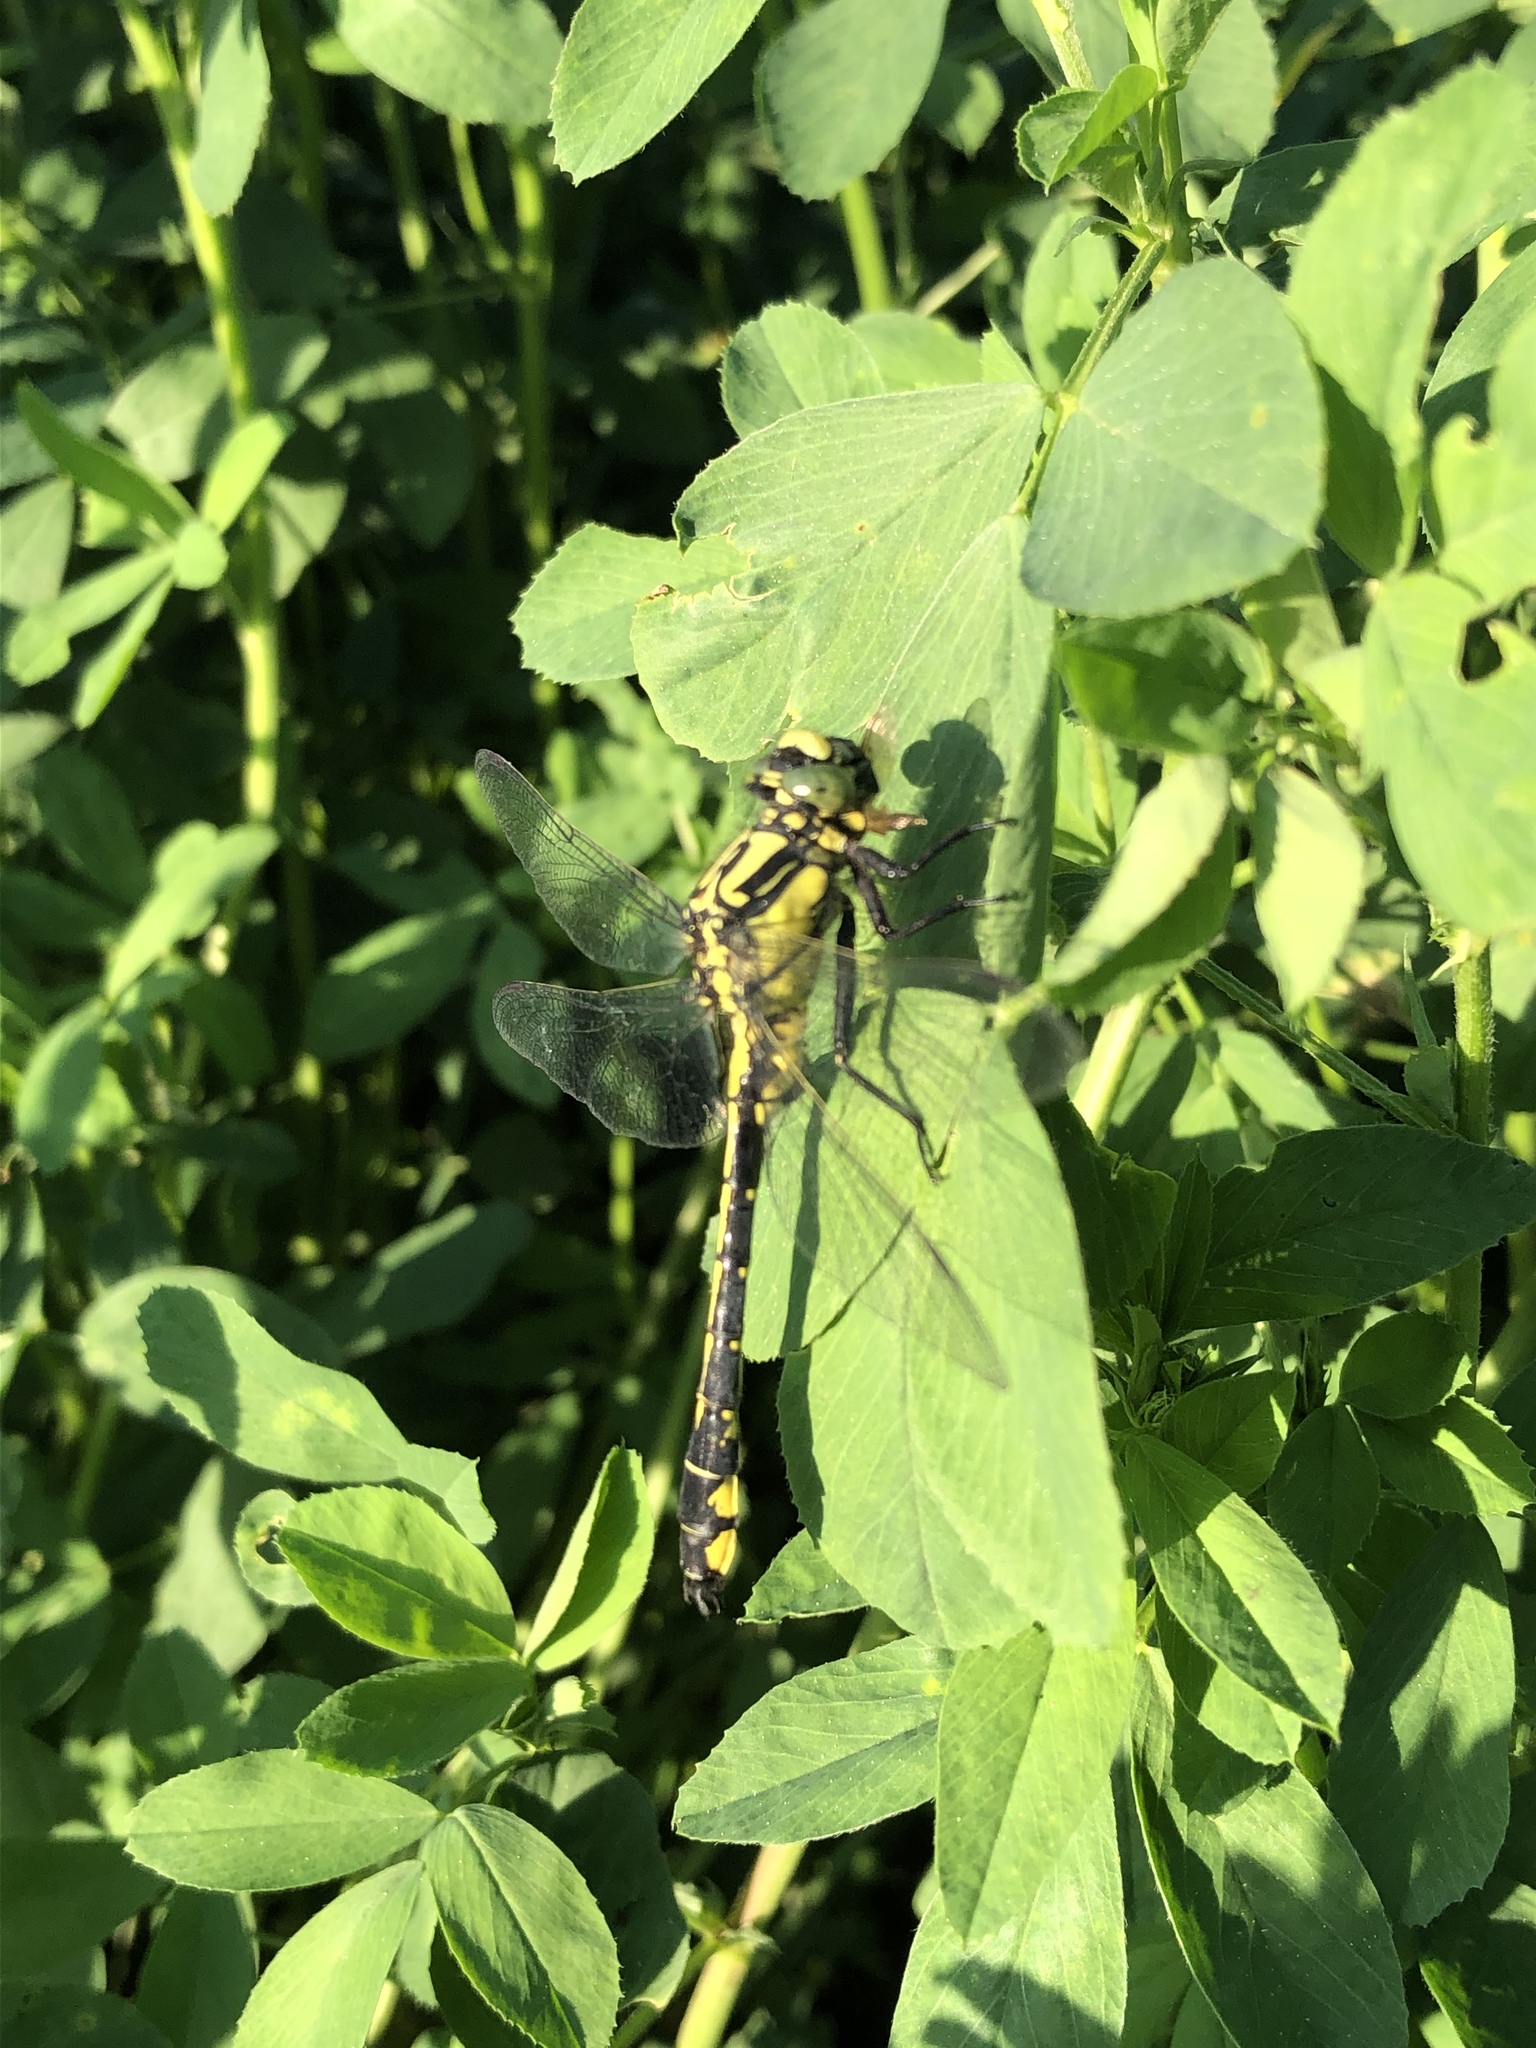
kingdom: Animalia
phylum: Arthropoda
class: Insecta
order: Odonata
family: Gomphidae
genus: Gomphus
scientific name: Gomphus vulgatissimus
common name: Club-tailed dragonfly
